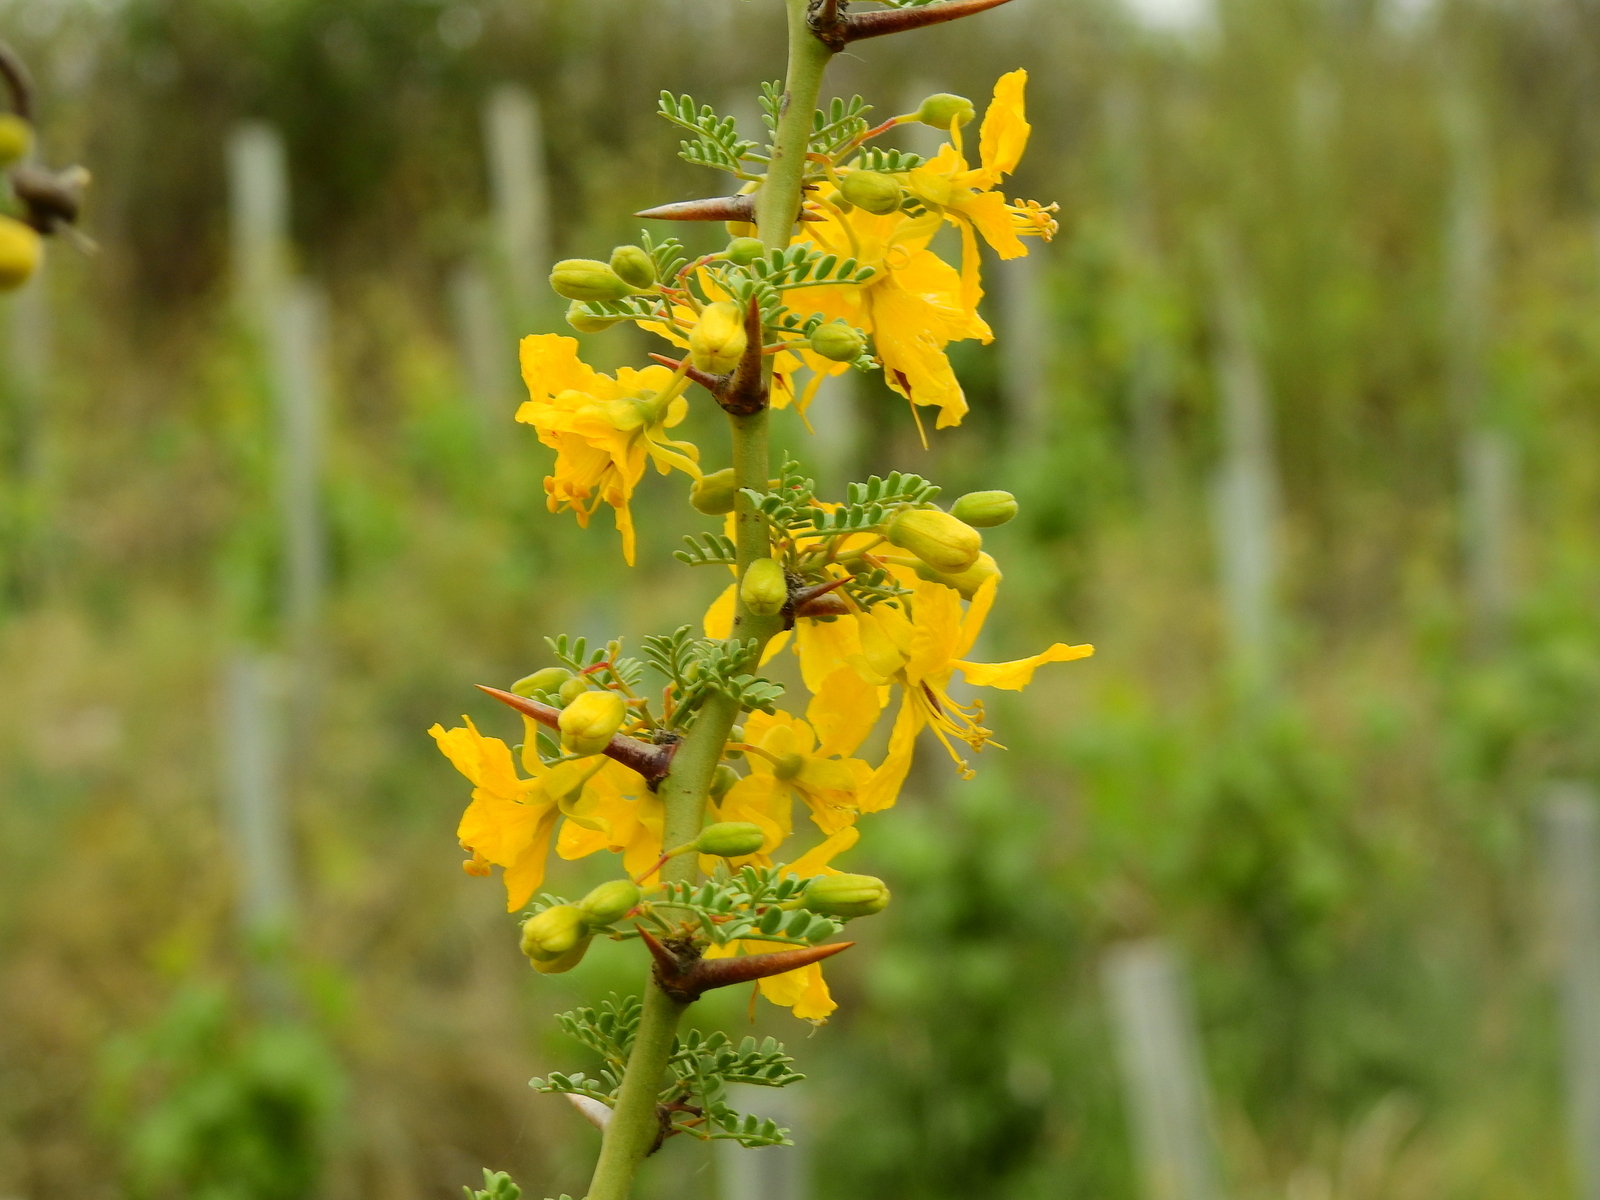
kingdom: Plantae
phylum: Tracheophyta
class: Magnoliopsida
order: Fabales
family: Fabaceae
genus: Parkinsonia
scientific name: Parkinsonia praecox
